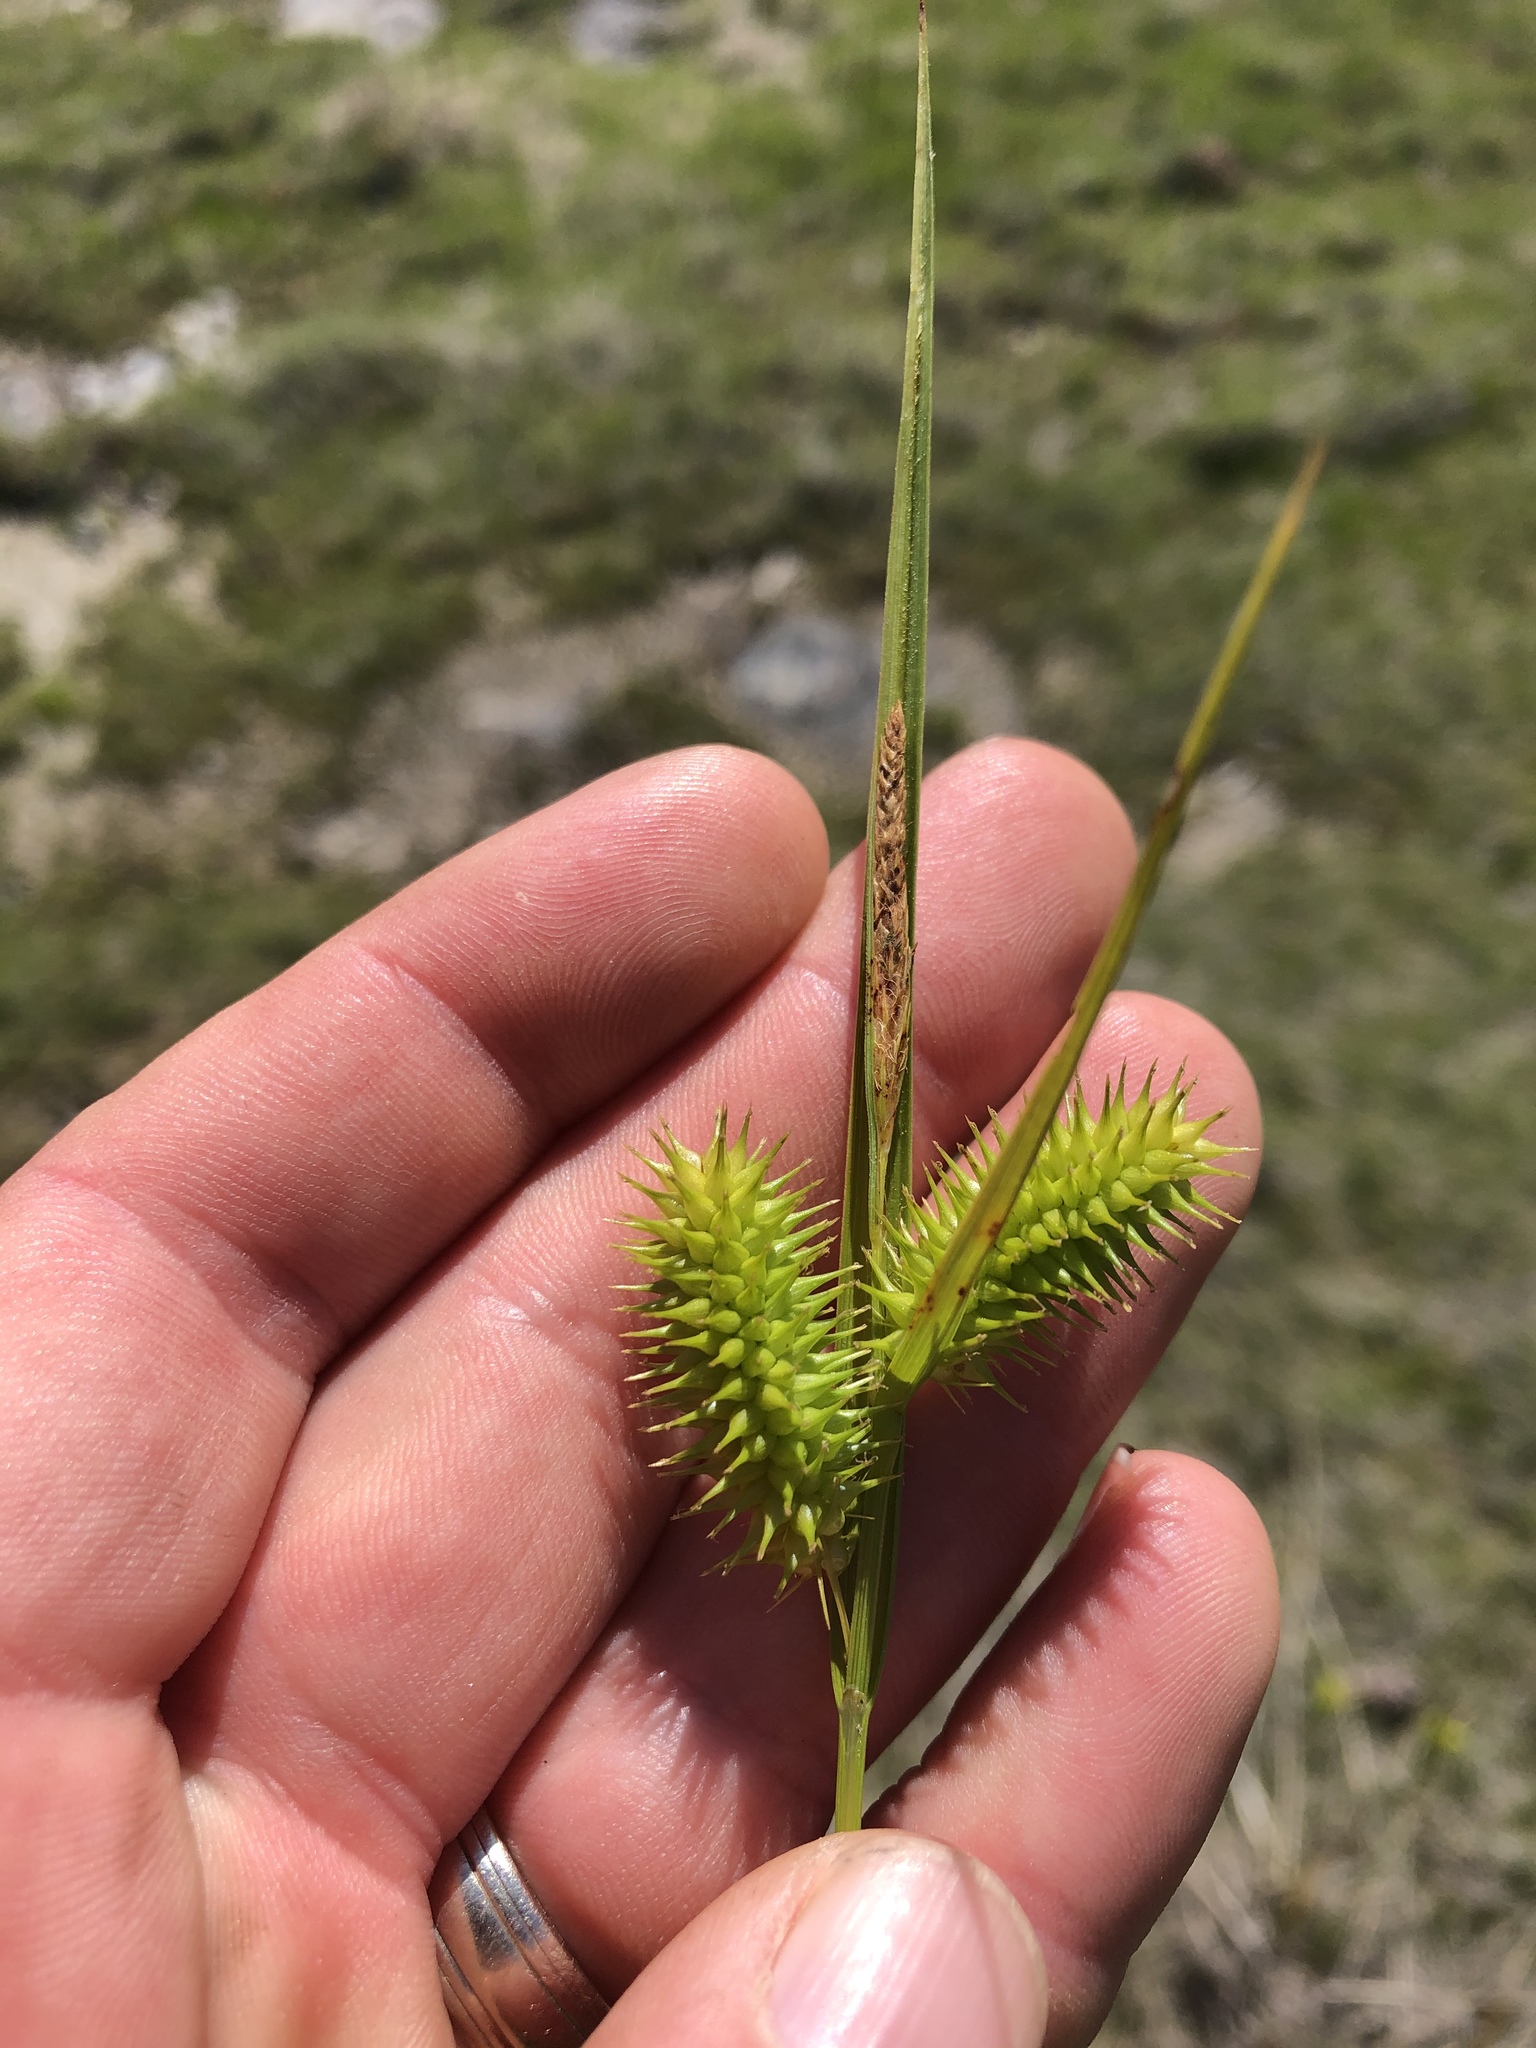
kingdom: Plantae
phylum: Tracheophyta
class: Liliopsida
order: Poales
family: Cyperaceae
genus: Carex
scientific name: Carex lurida
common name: Sallow sedge
